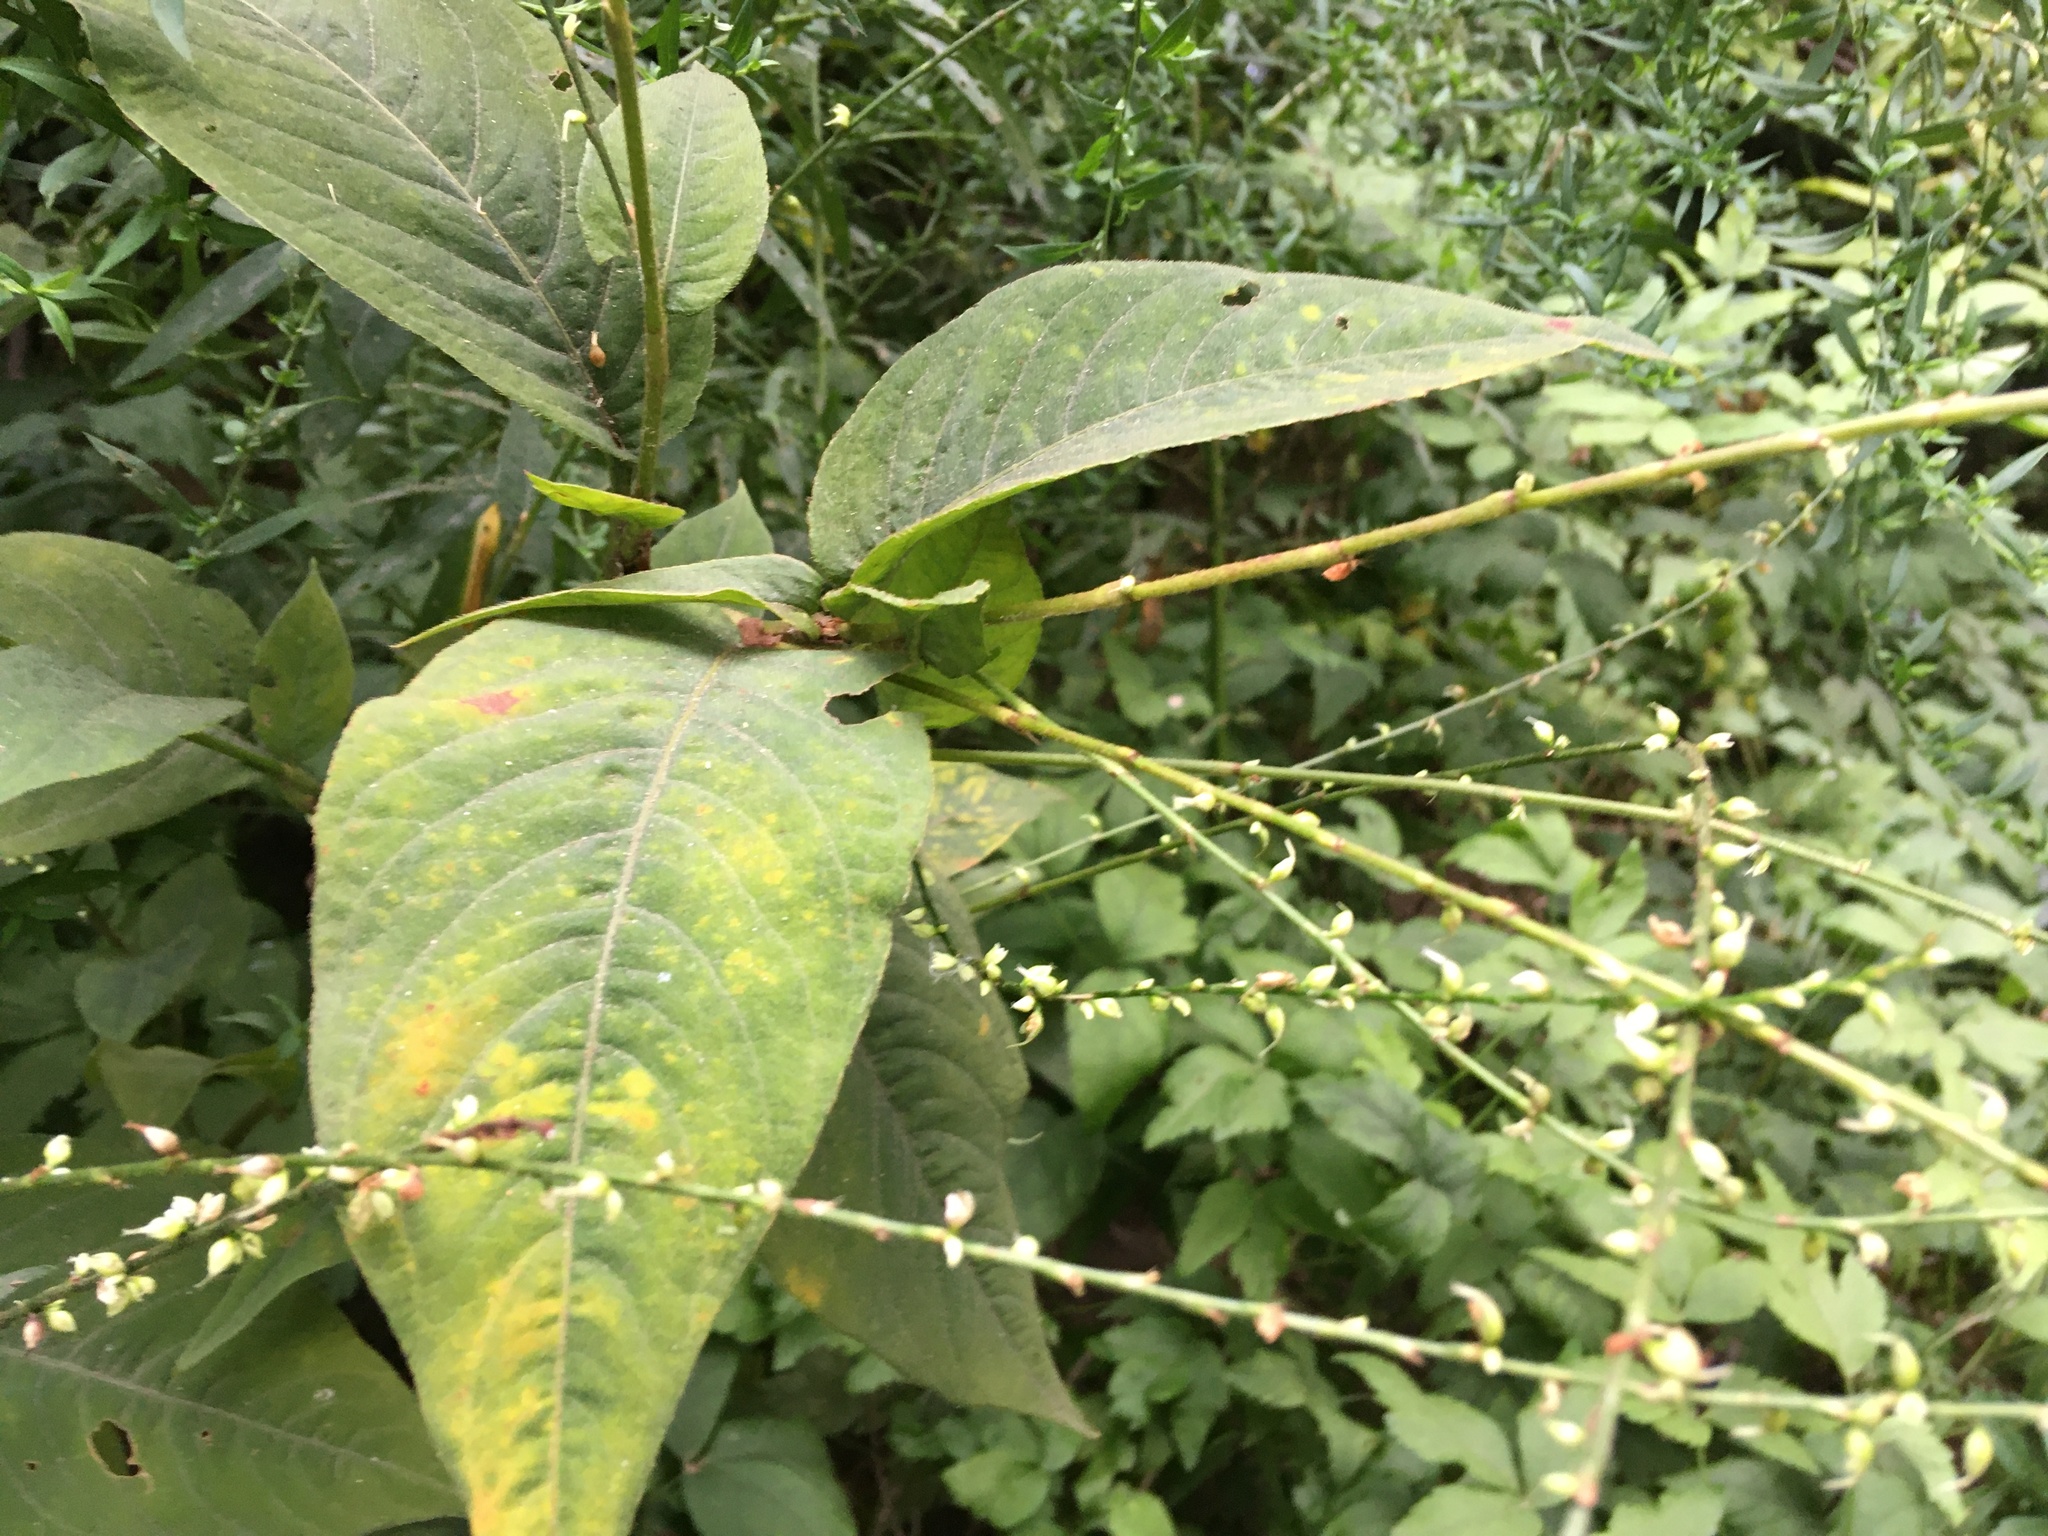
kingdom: Plantae
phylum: Tracheophyta
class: Magnoliopsida
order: Caryophyllales
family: Polygonaceae
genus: Persicaria
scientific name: Persicaria virginiana
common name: Jumpseed
